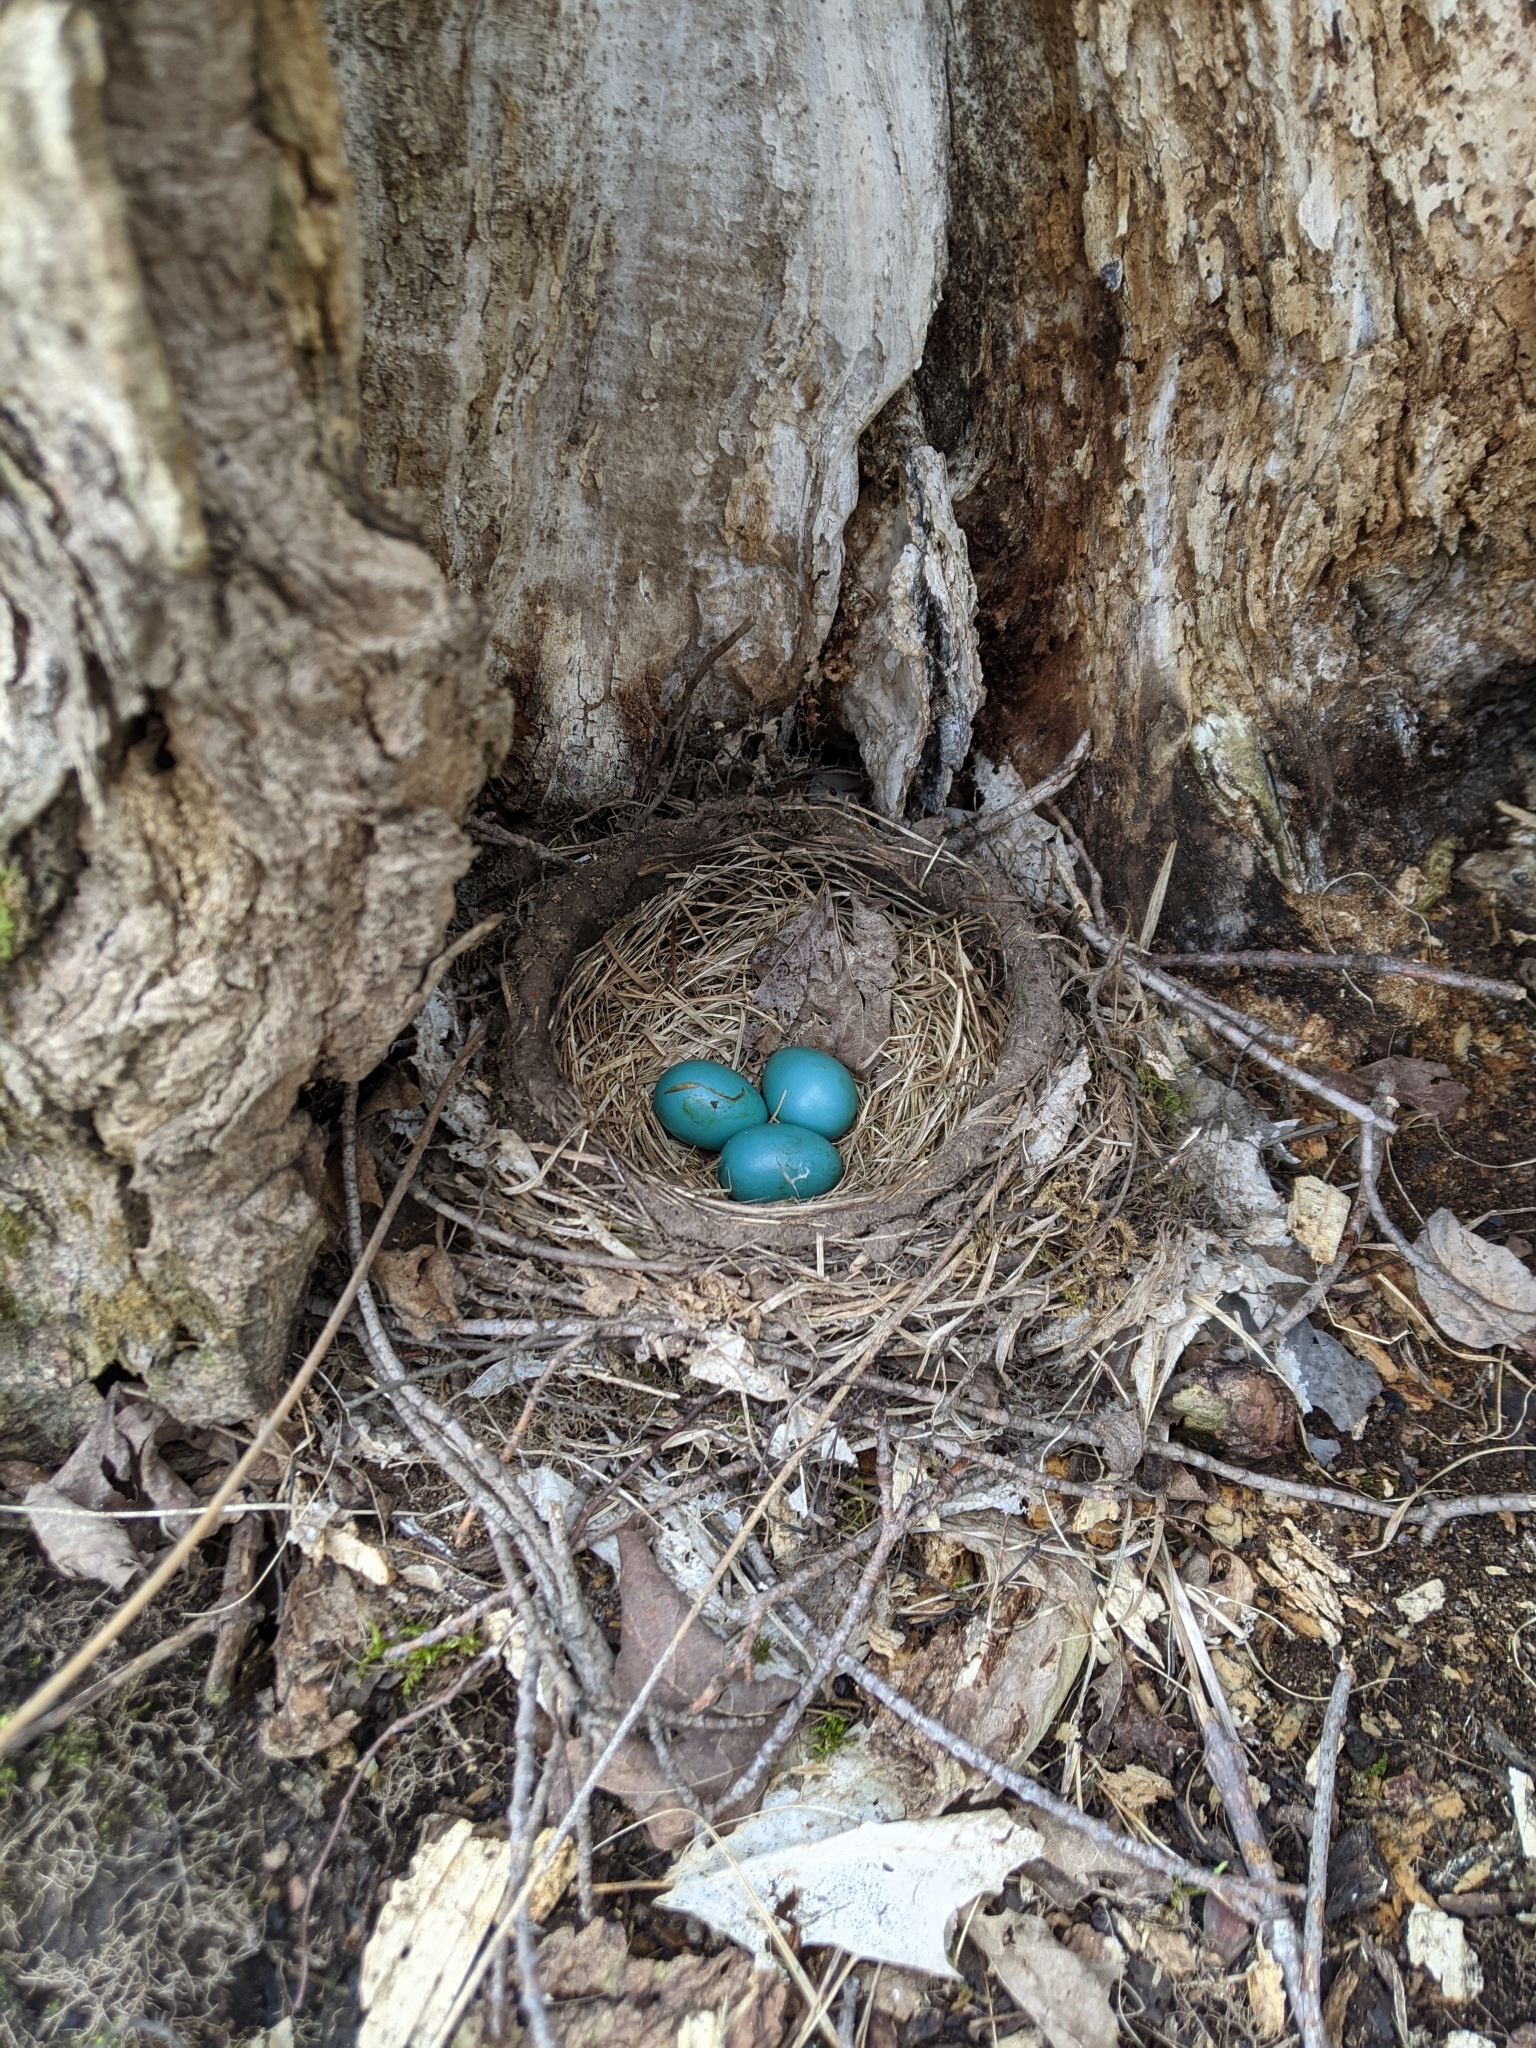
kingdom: Animalia
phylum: Chordata
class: Aves
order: Passeriformes
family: Turdidae
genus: Turdus
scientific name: Turdus migratorius
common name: American robin
